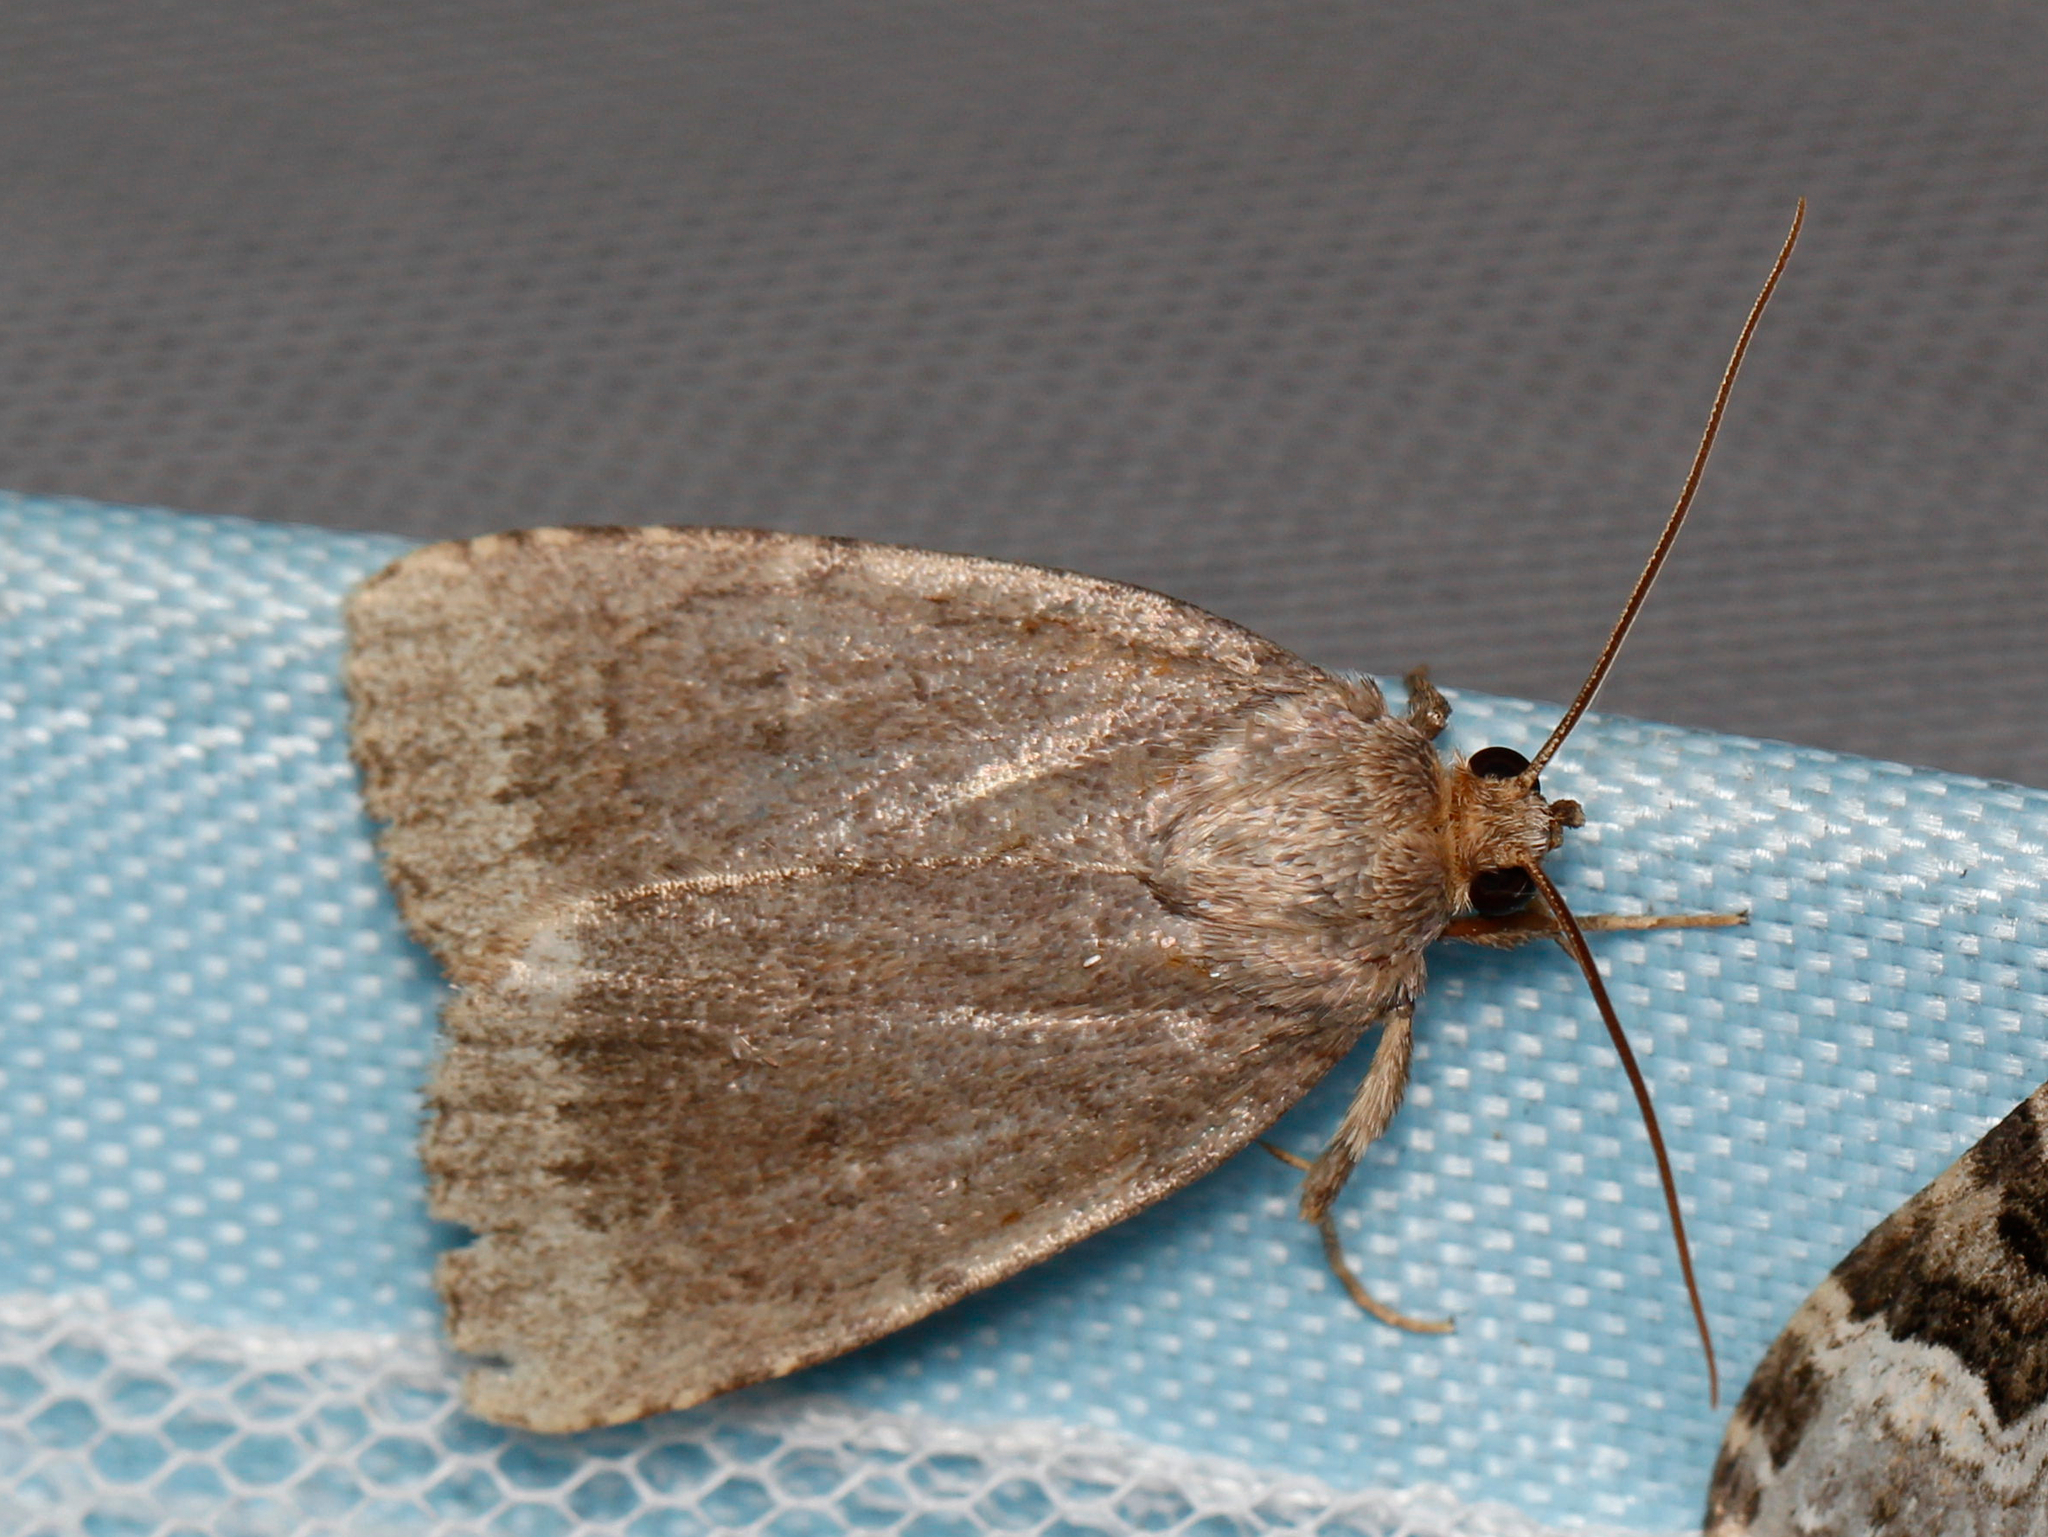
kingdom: Animalia
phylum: Arthropoda
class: Insecta
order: Lepidoptera
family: Noctuidae
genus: Amphipyra
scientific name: Amphipyra glabella
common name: Smooth amphipyra moth
